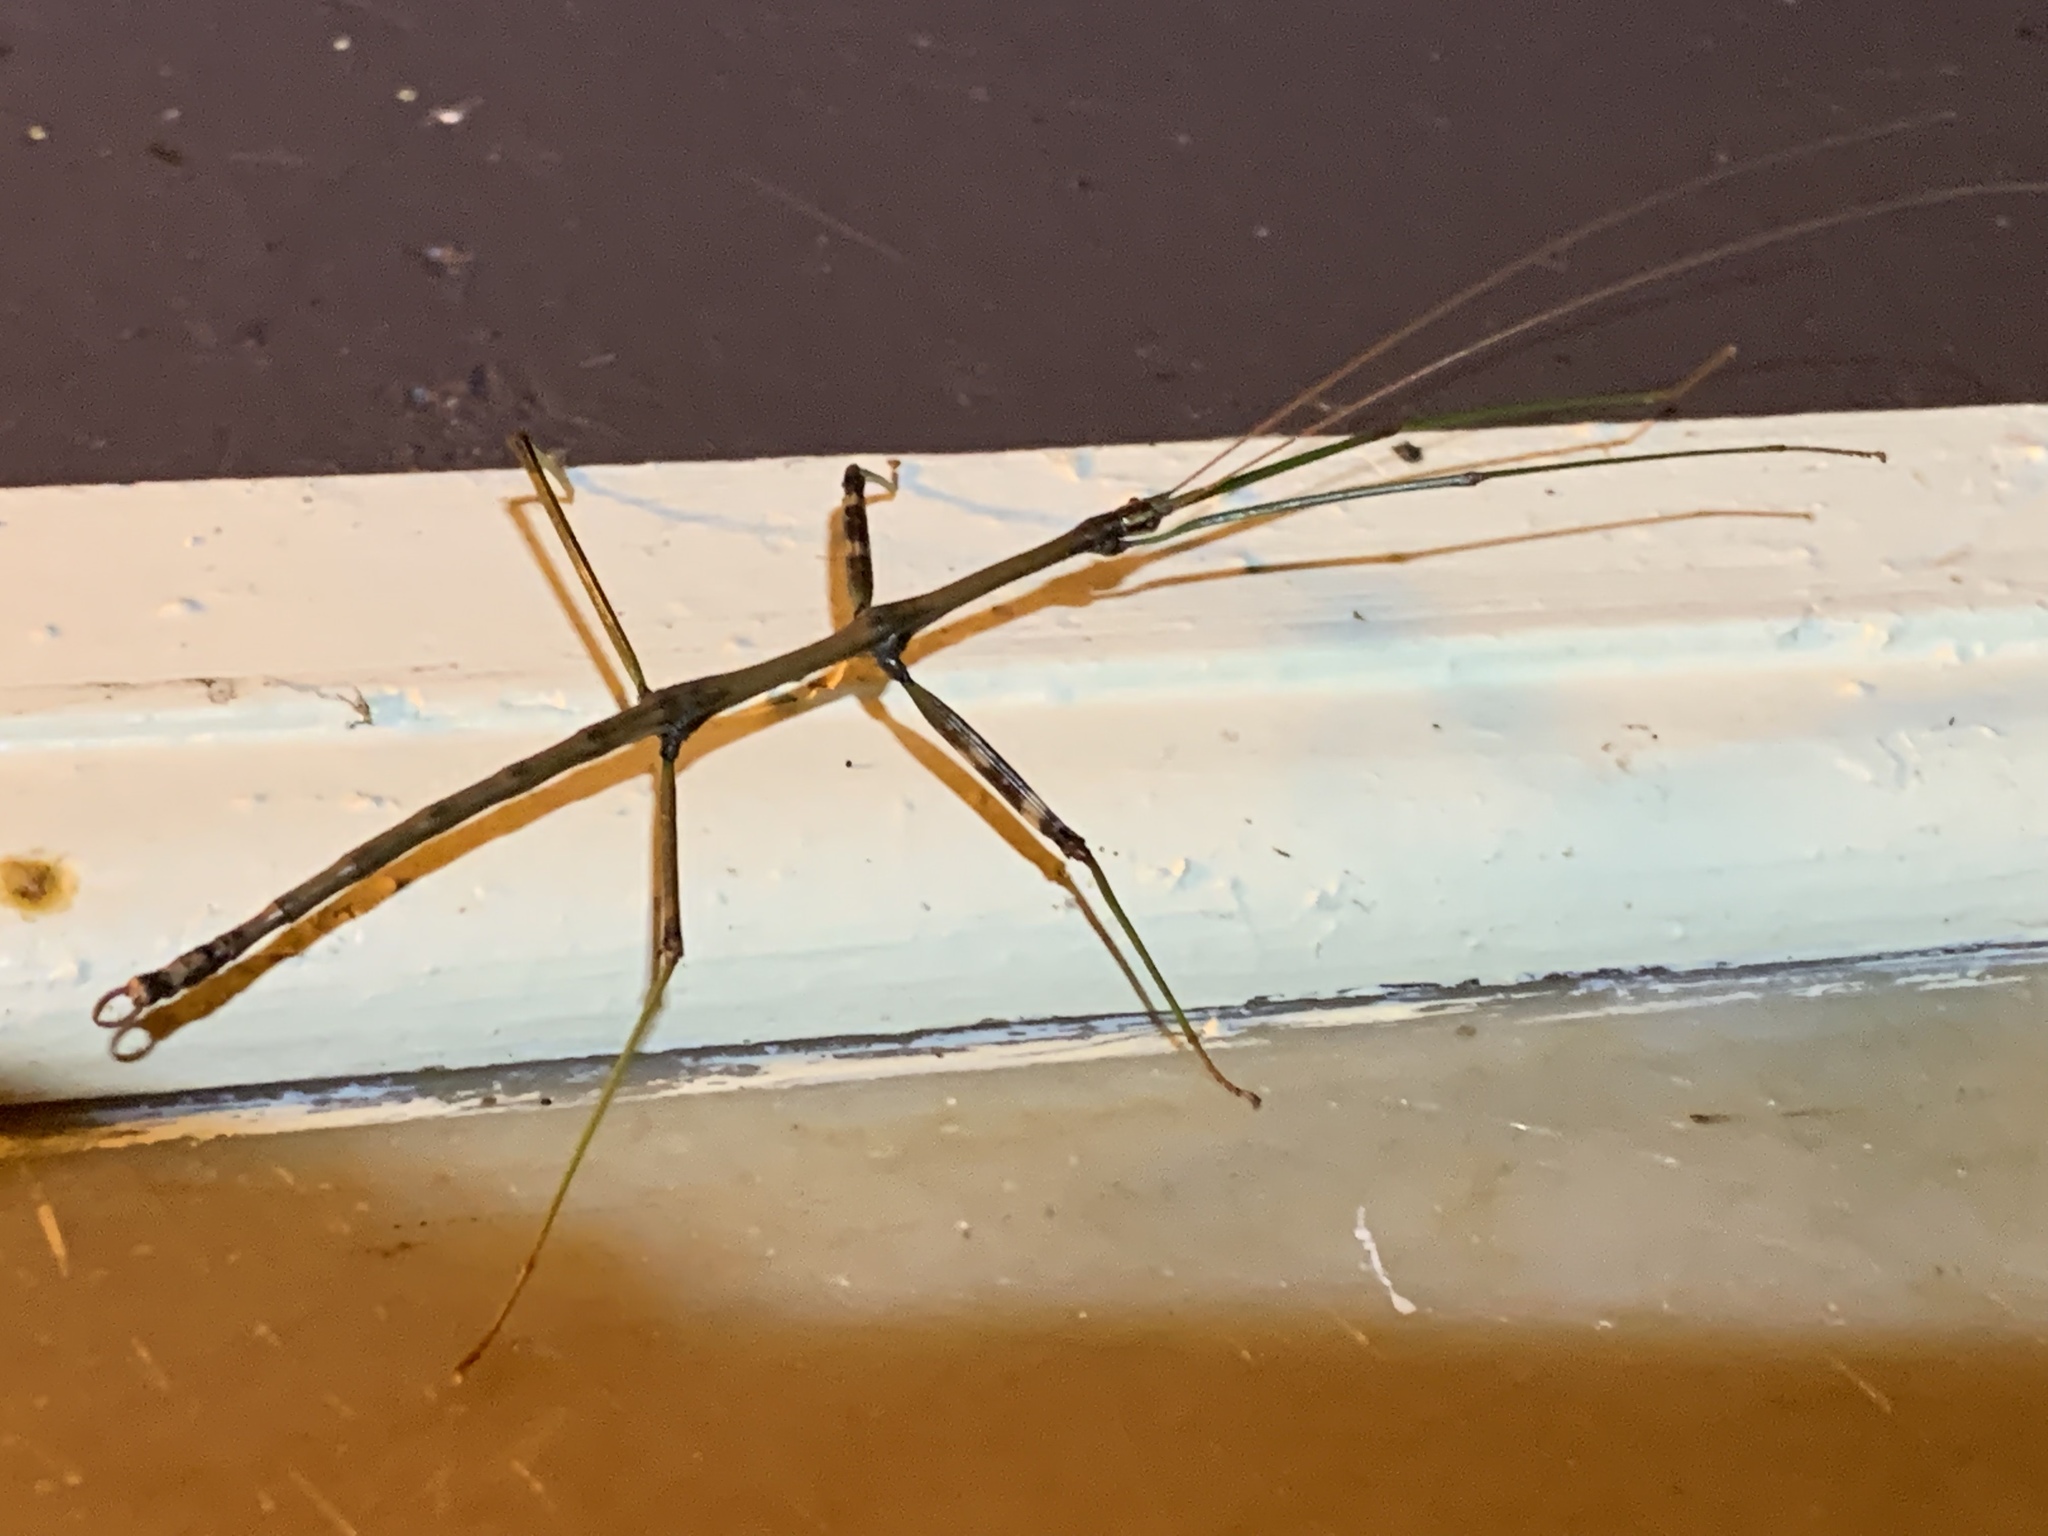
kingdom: Animalia
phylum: Arthropoda
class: Insecta
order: Phasmida
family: Diapheromeridae
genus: Diapheromera
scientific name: Diapheromera femorata
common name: Common american walkingstick
